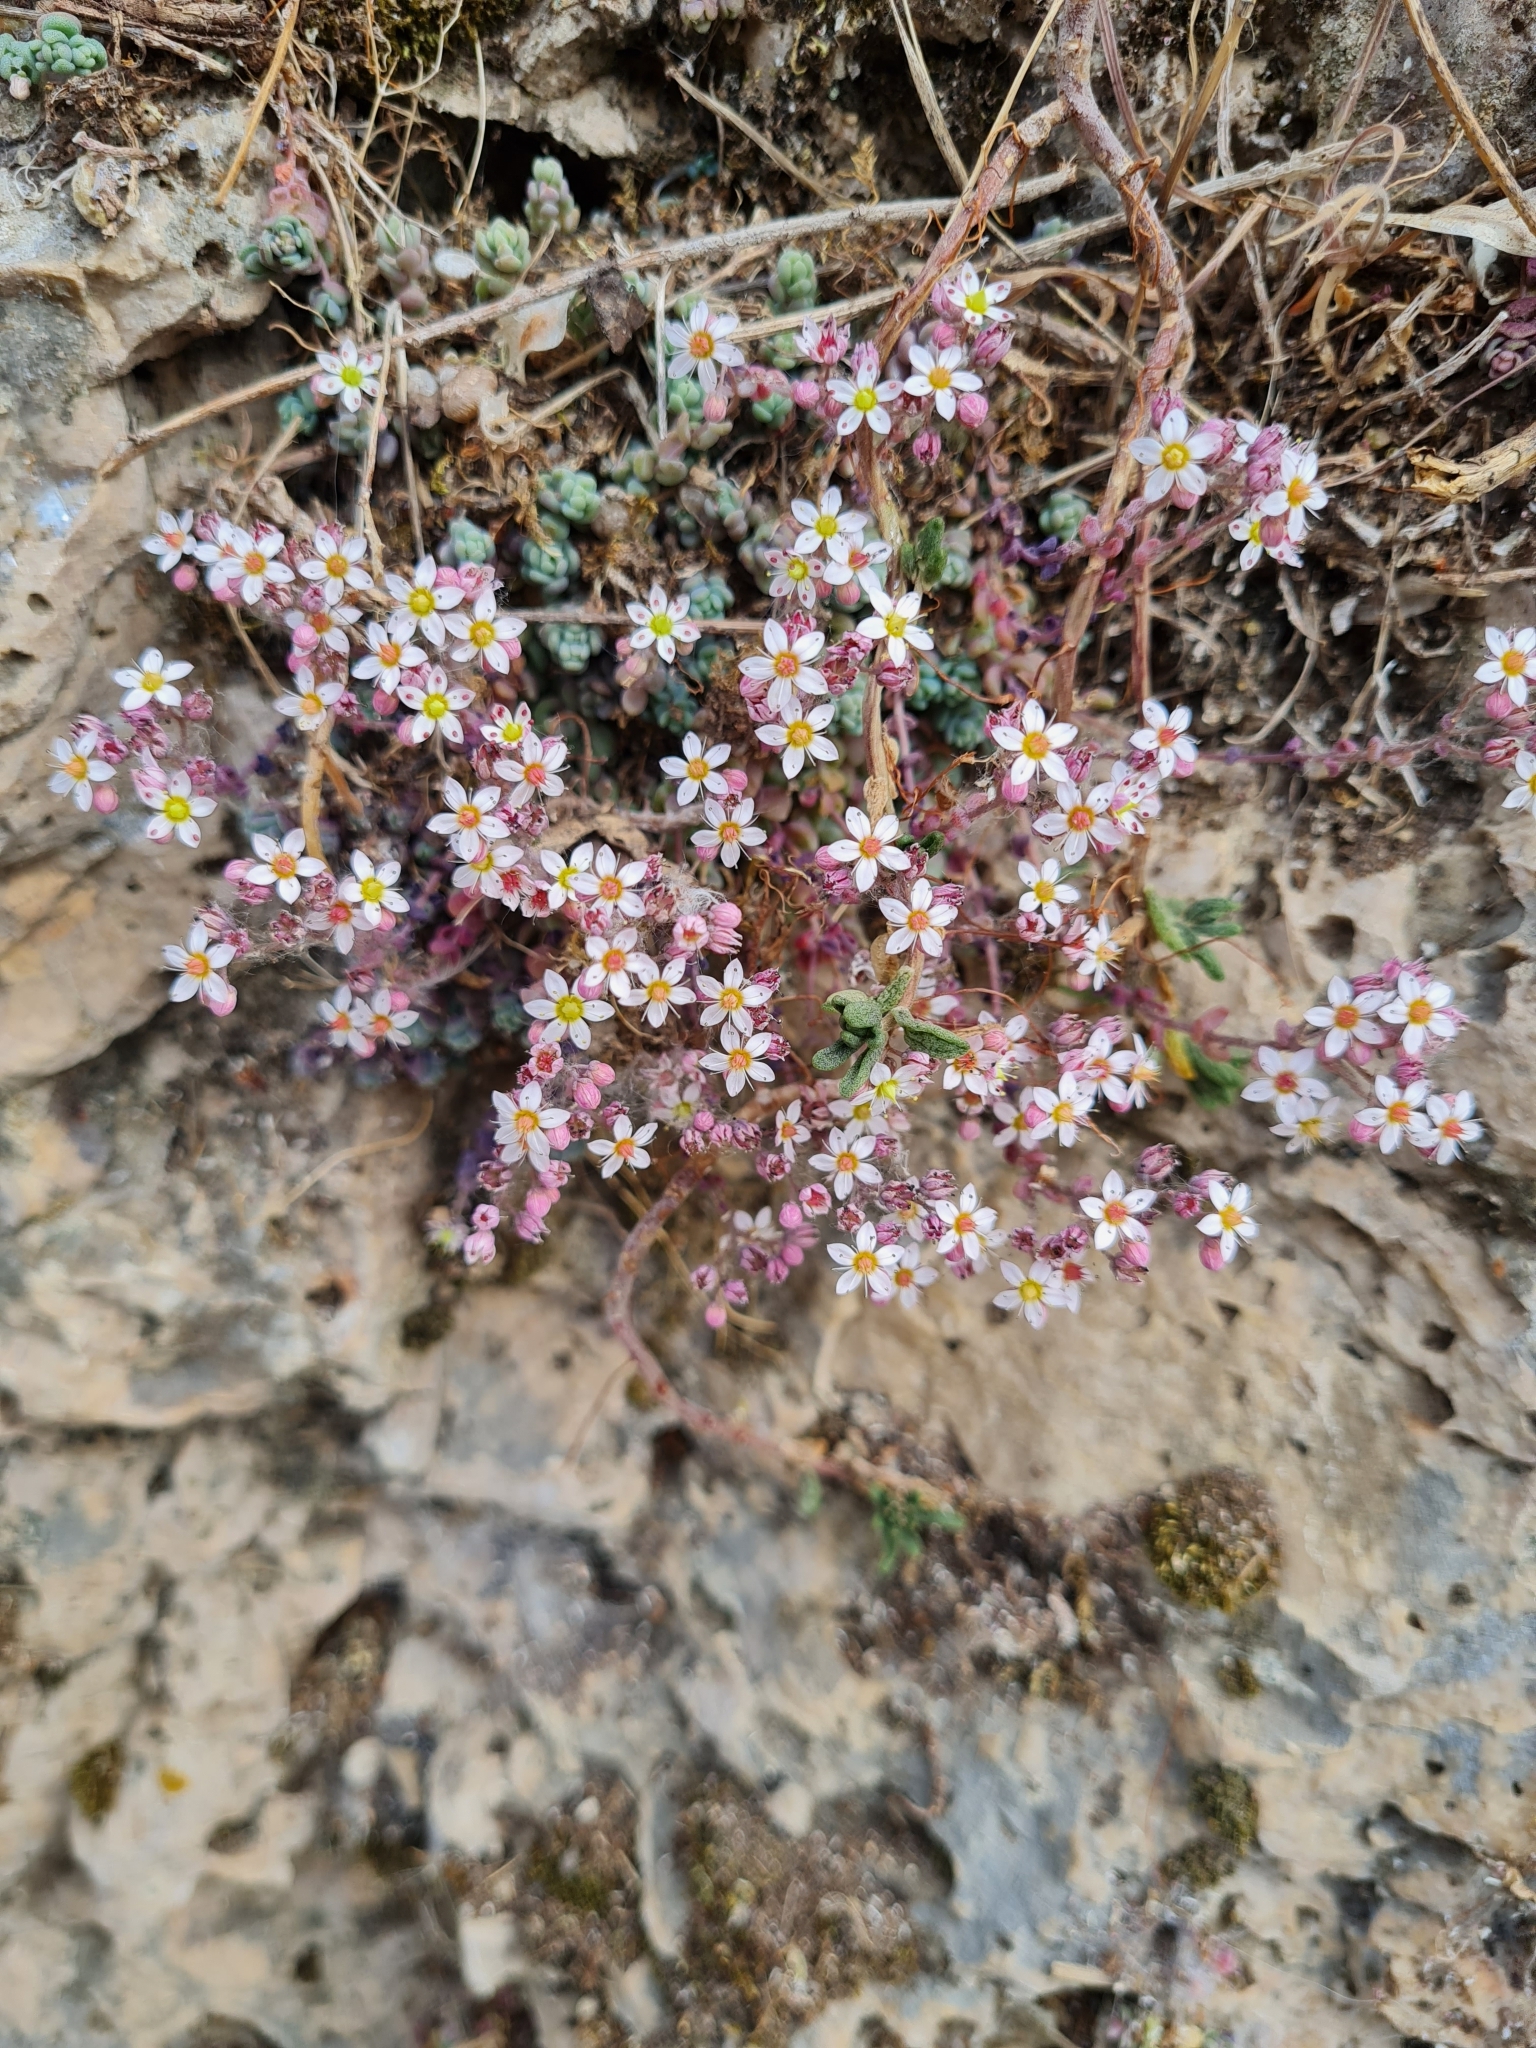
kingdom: Plantae
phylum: Tracheophyta
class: Magnoliopsida
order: Saxifragales
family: Crassulaceae
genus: Sedum
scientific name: Sedum dasyphyllum
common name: Thick-leaf stonecrop
